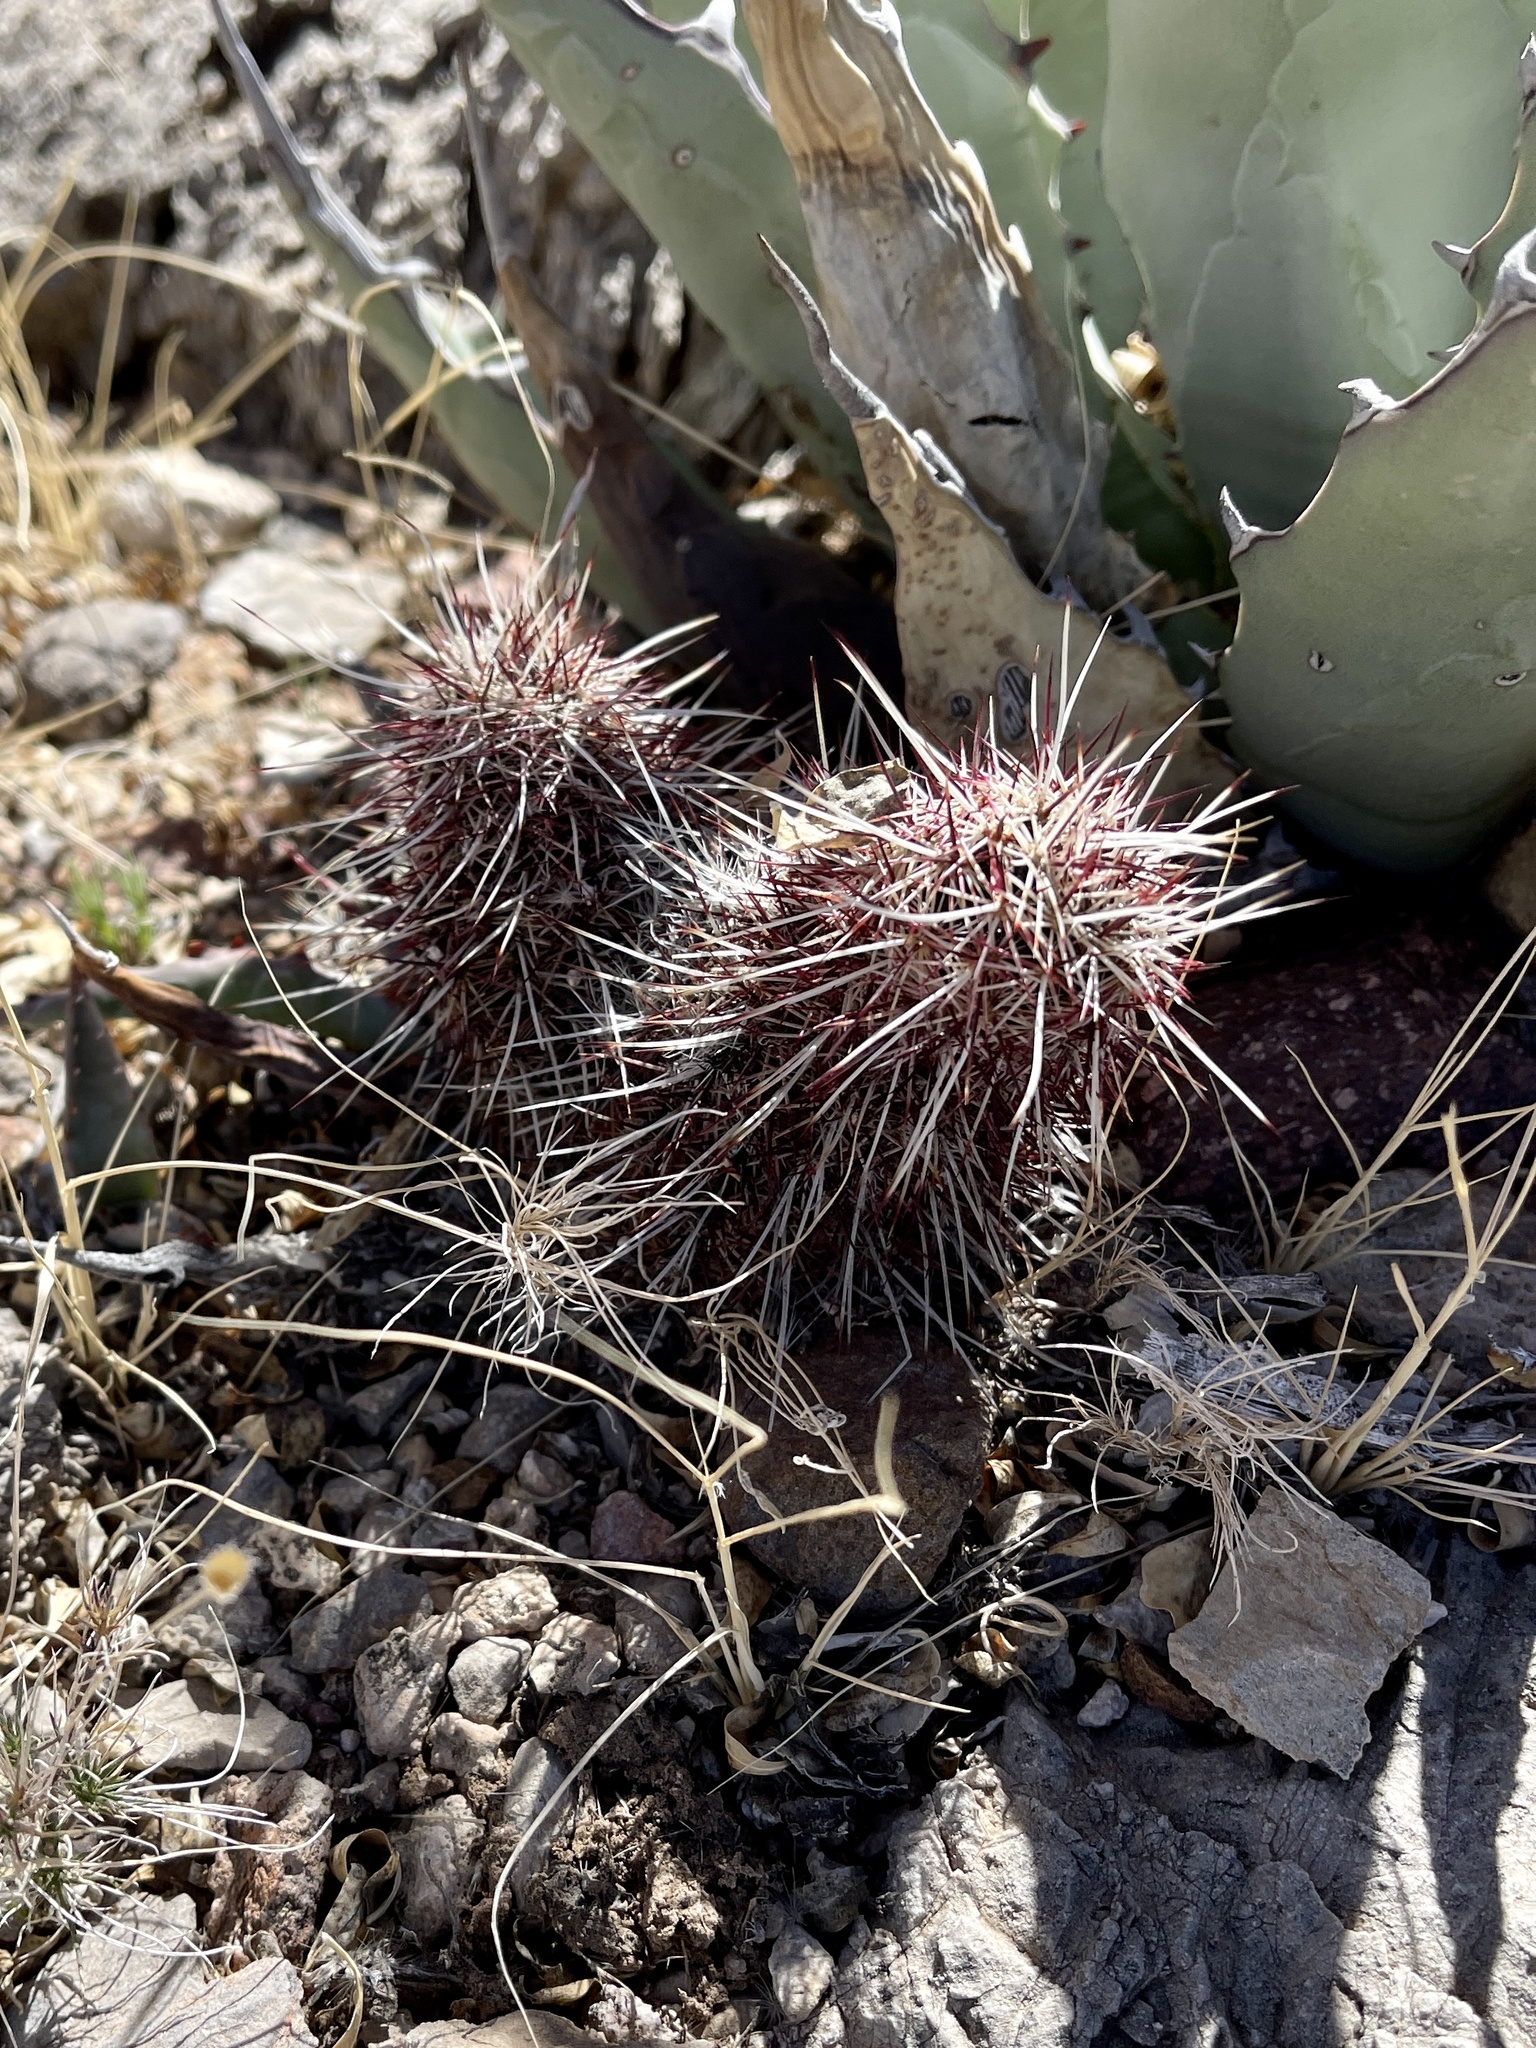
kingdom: Plantae
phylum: Tracheophyta
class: Magnoliopsida
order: Caryophyllales
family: Cactaceae
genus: Echinocereus
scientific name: Echinocereus viridiflorus
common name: Nylon hedgehog cactus
